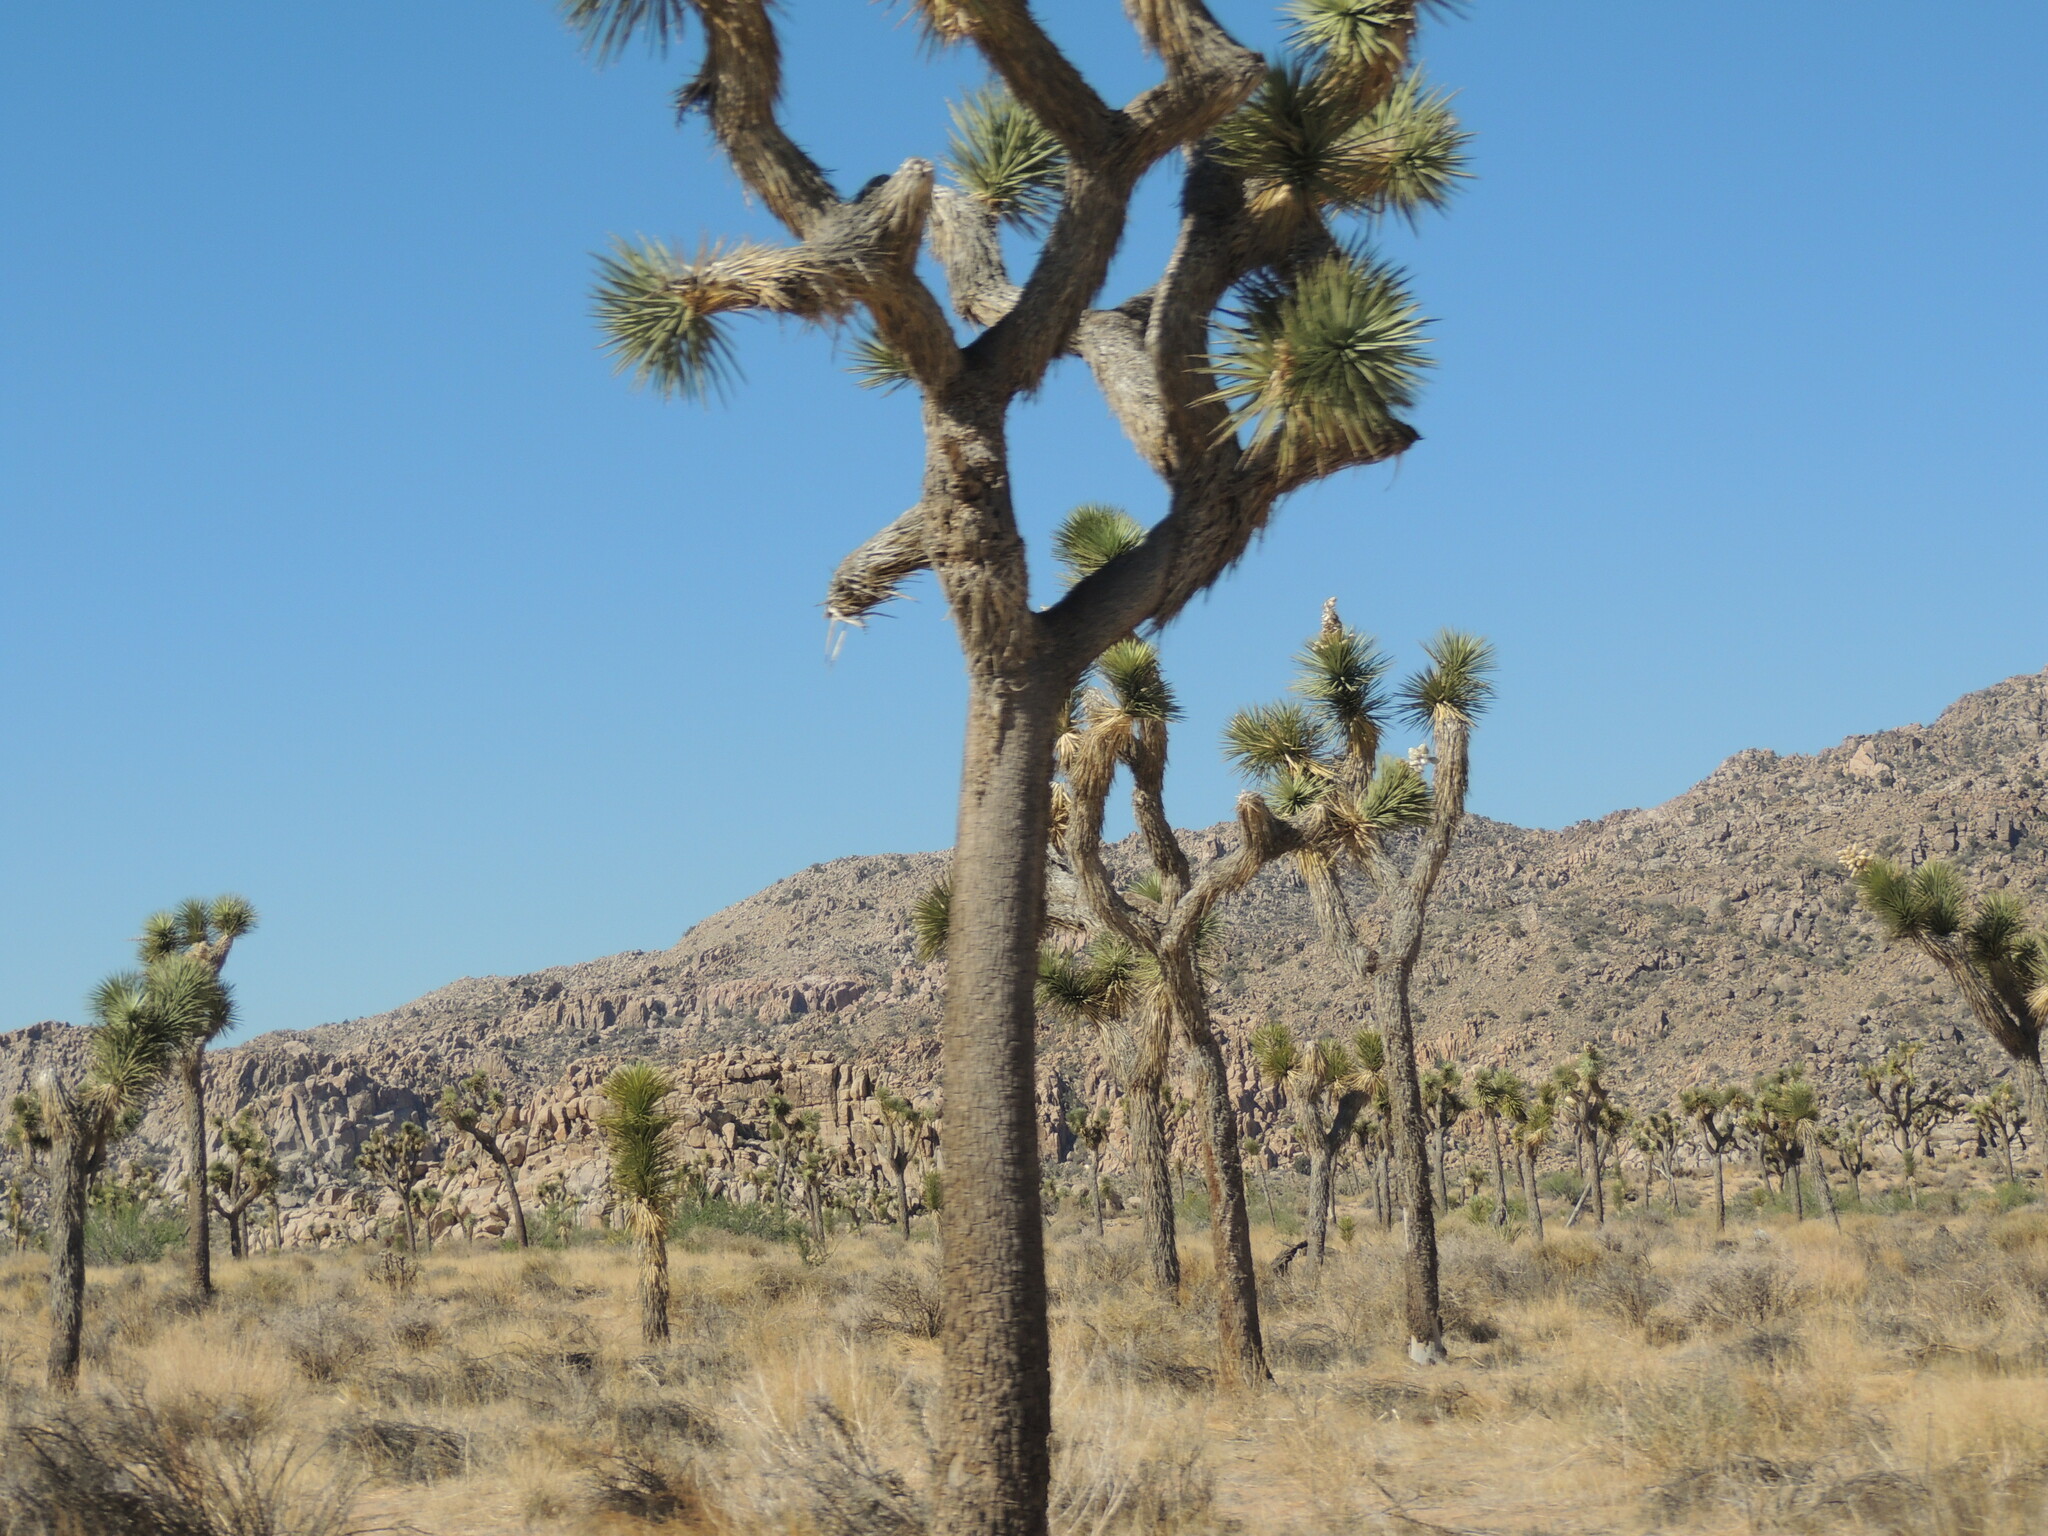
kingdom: Plantae
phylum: Tracheophyta
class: Liliopsida
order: Asparagales
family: Asparagaceae
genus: Yucca
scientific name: Yucca brevifolia
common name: Joshua tree
